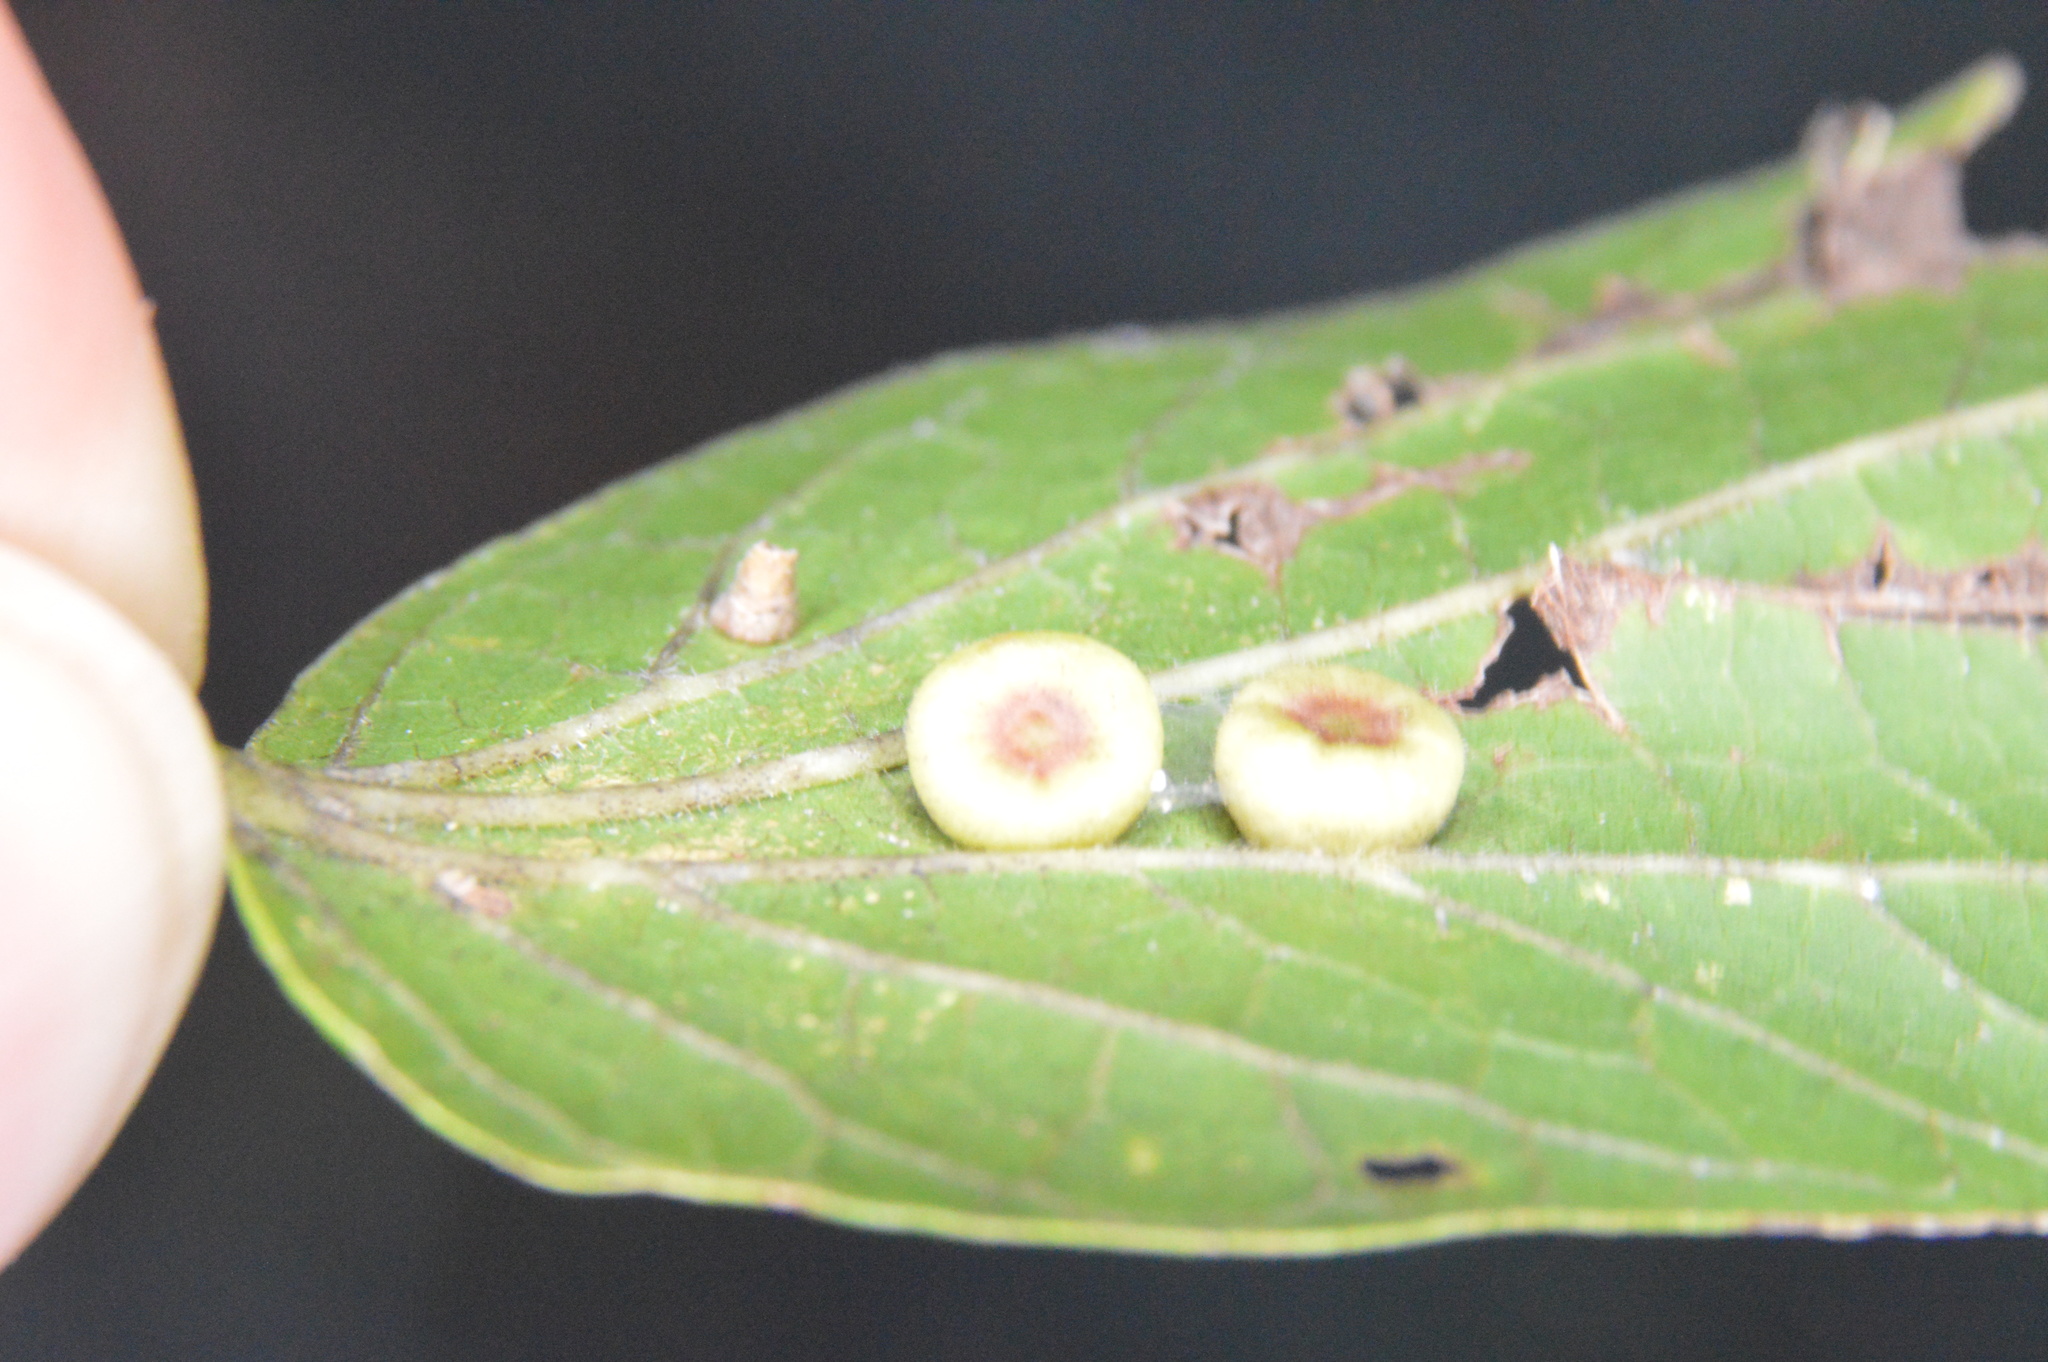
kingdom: Animalia
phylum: Arthropoda
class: Insecta
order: Hemiptera
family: Aphalaridae
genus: Pachypsylla
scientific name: Pachypsylla celtidismamma
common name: Hackberry nipplegall psyllid
